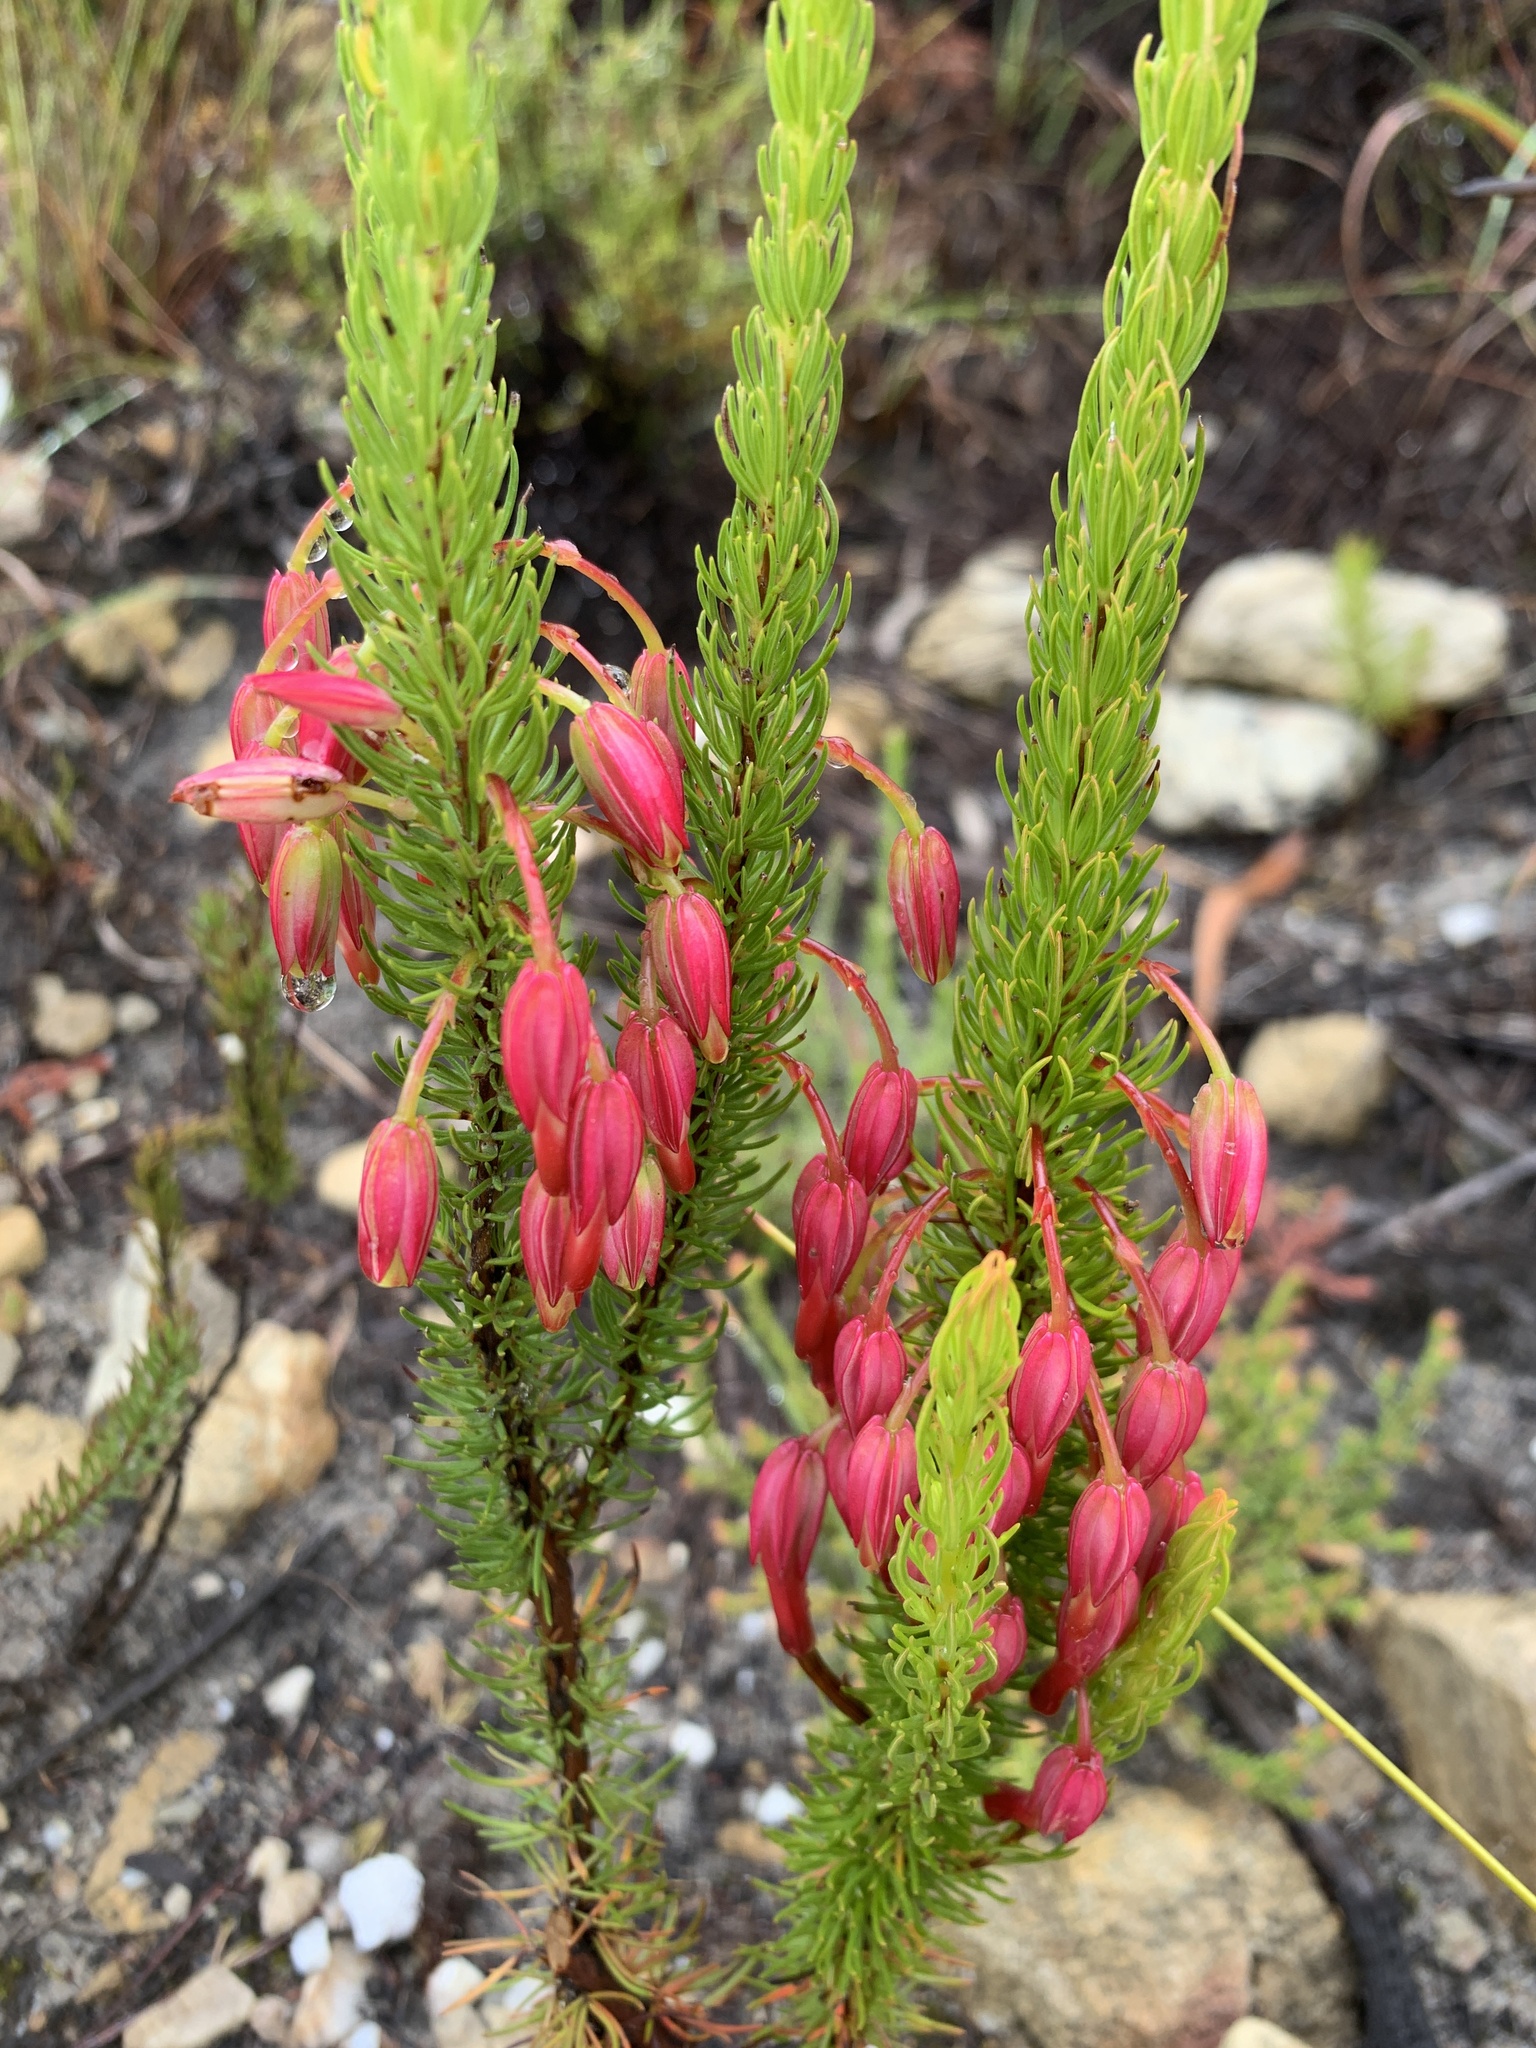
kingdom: Plantae
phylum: Tracheophyta
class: Magnoliopsida
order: Ericales
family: Ericaceae
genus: Erica
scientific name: Erica plukenetii
